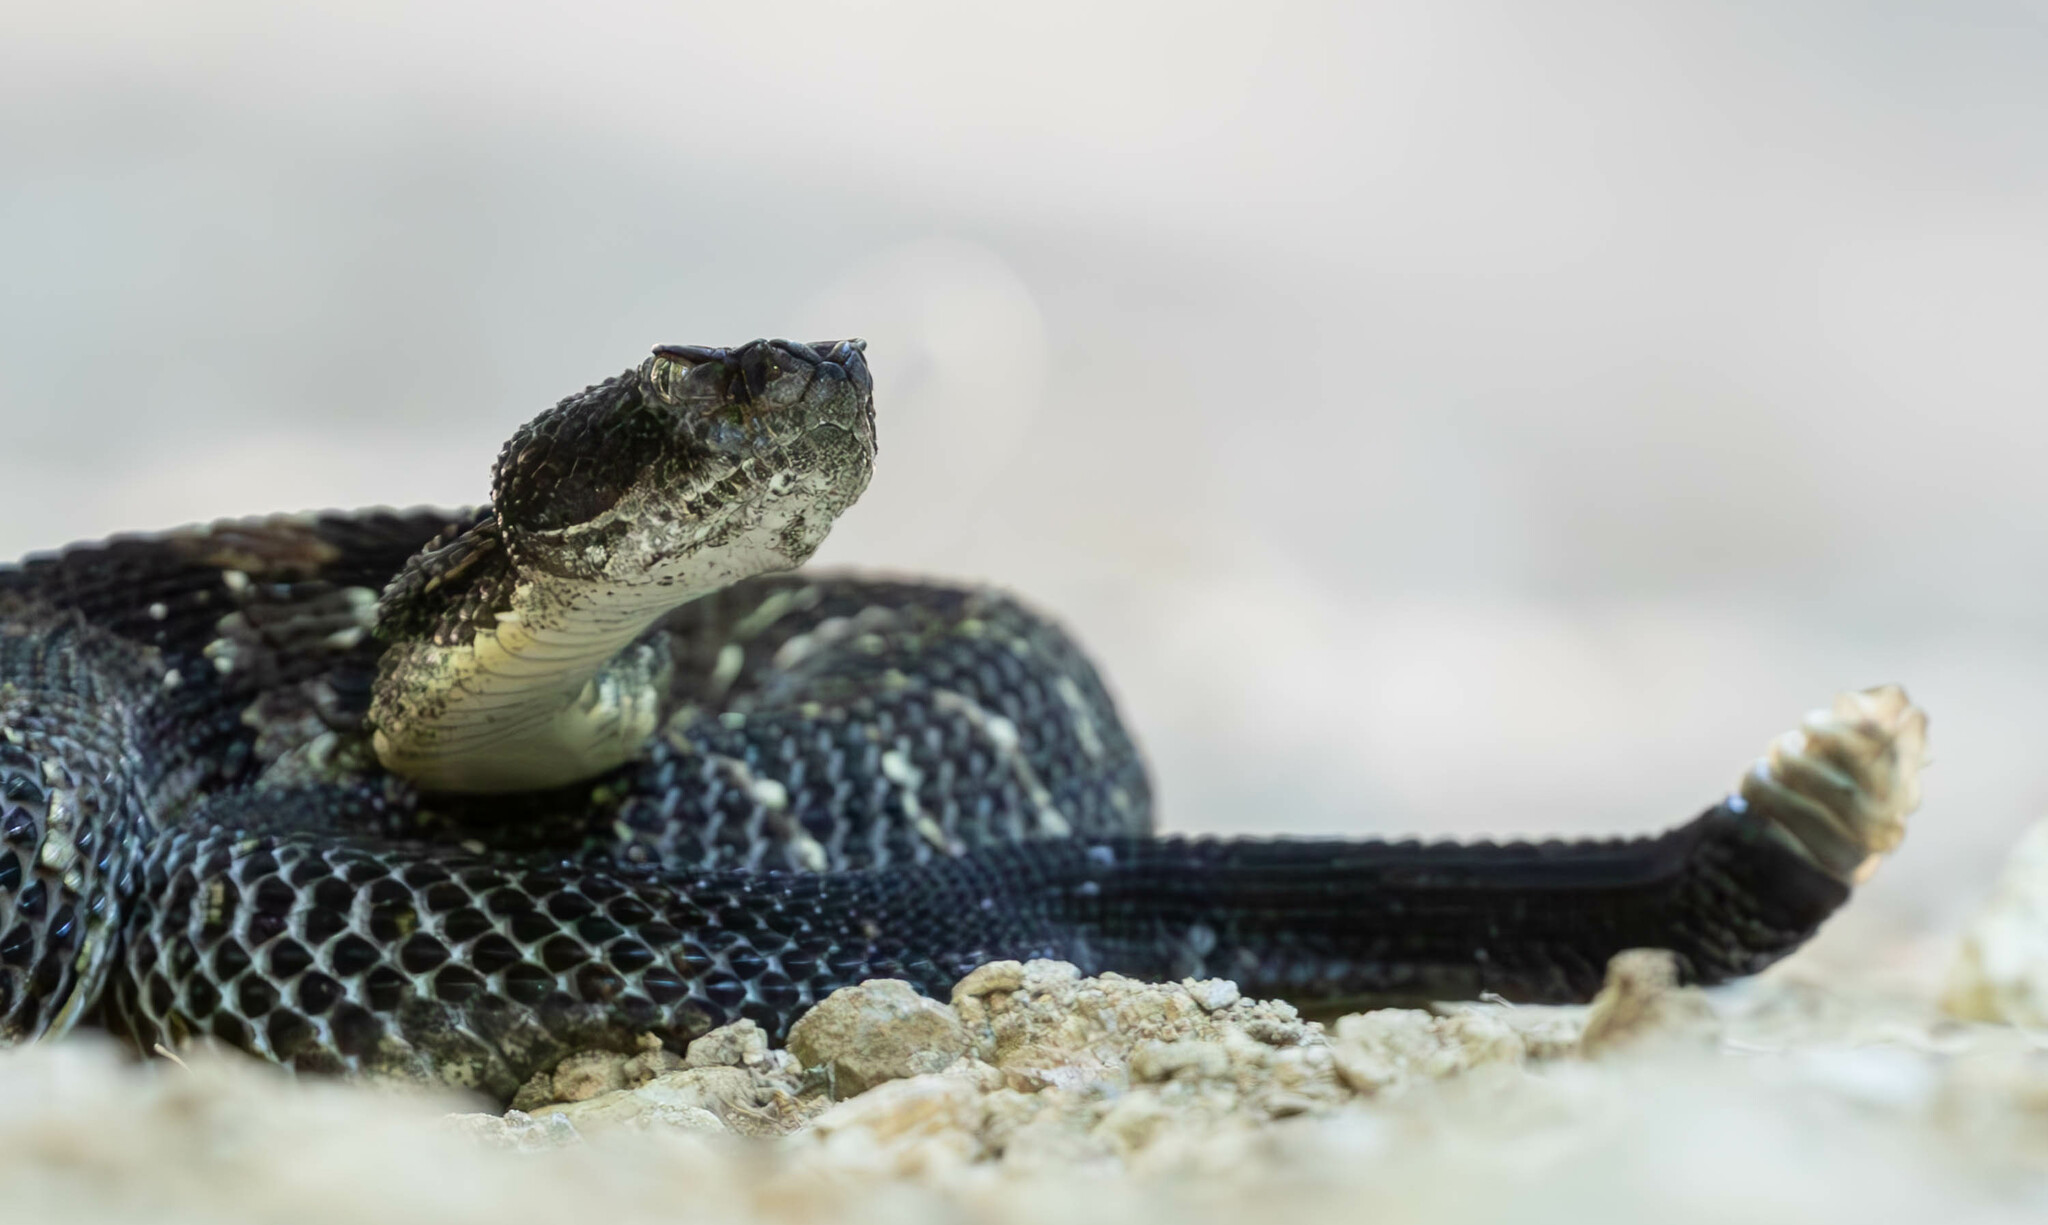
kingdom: Animalia
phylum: Chordata
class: Squamata
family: Viperidae
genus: Crotalus
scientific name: Crotalus horridus
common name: Timber rattlesnake
